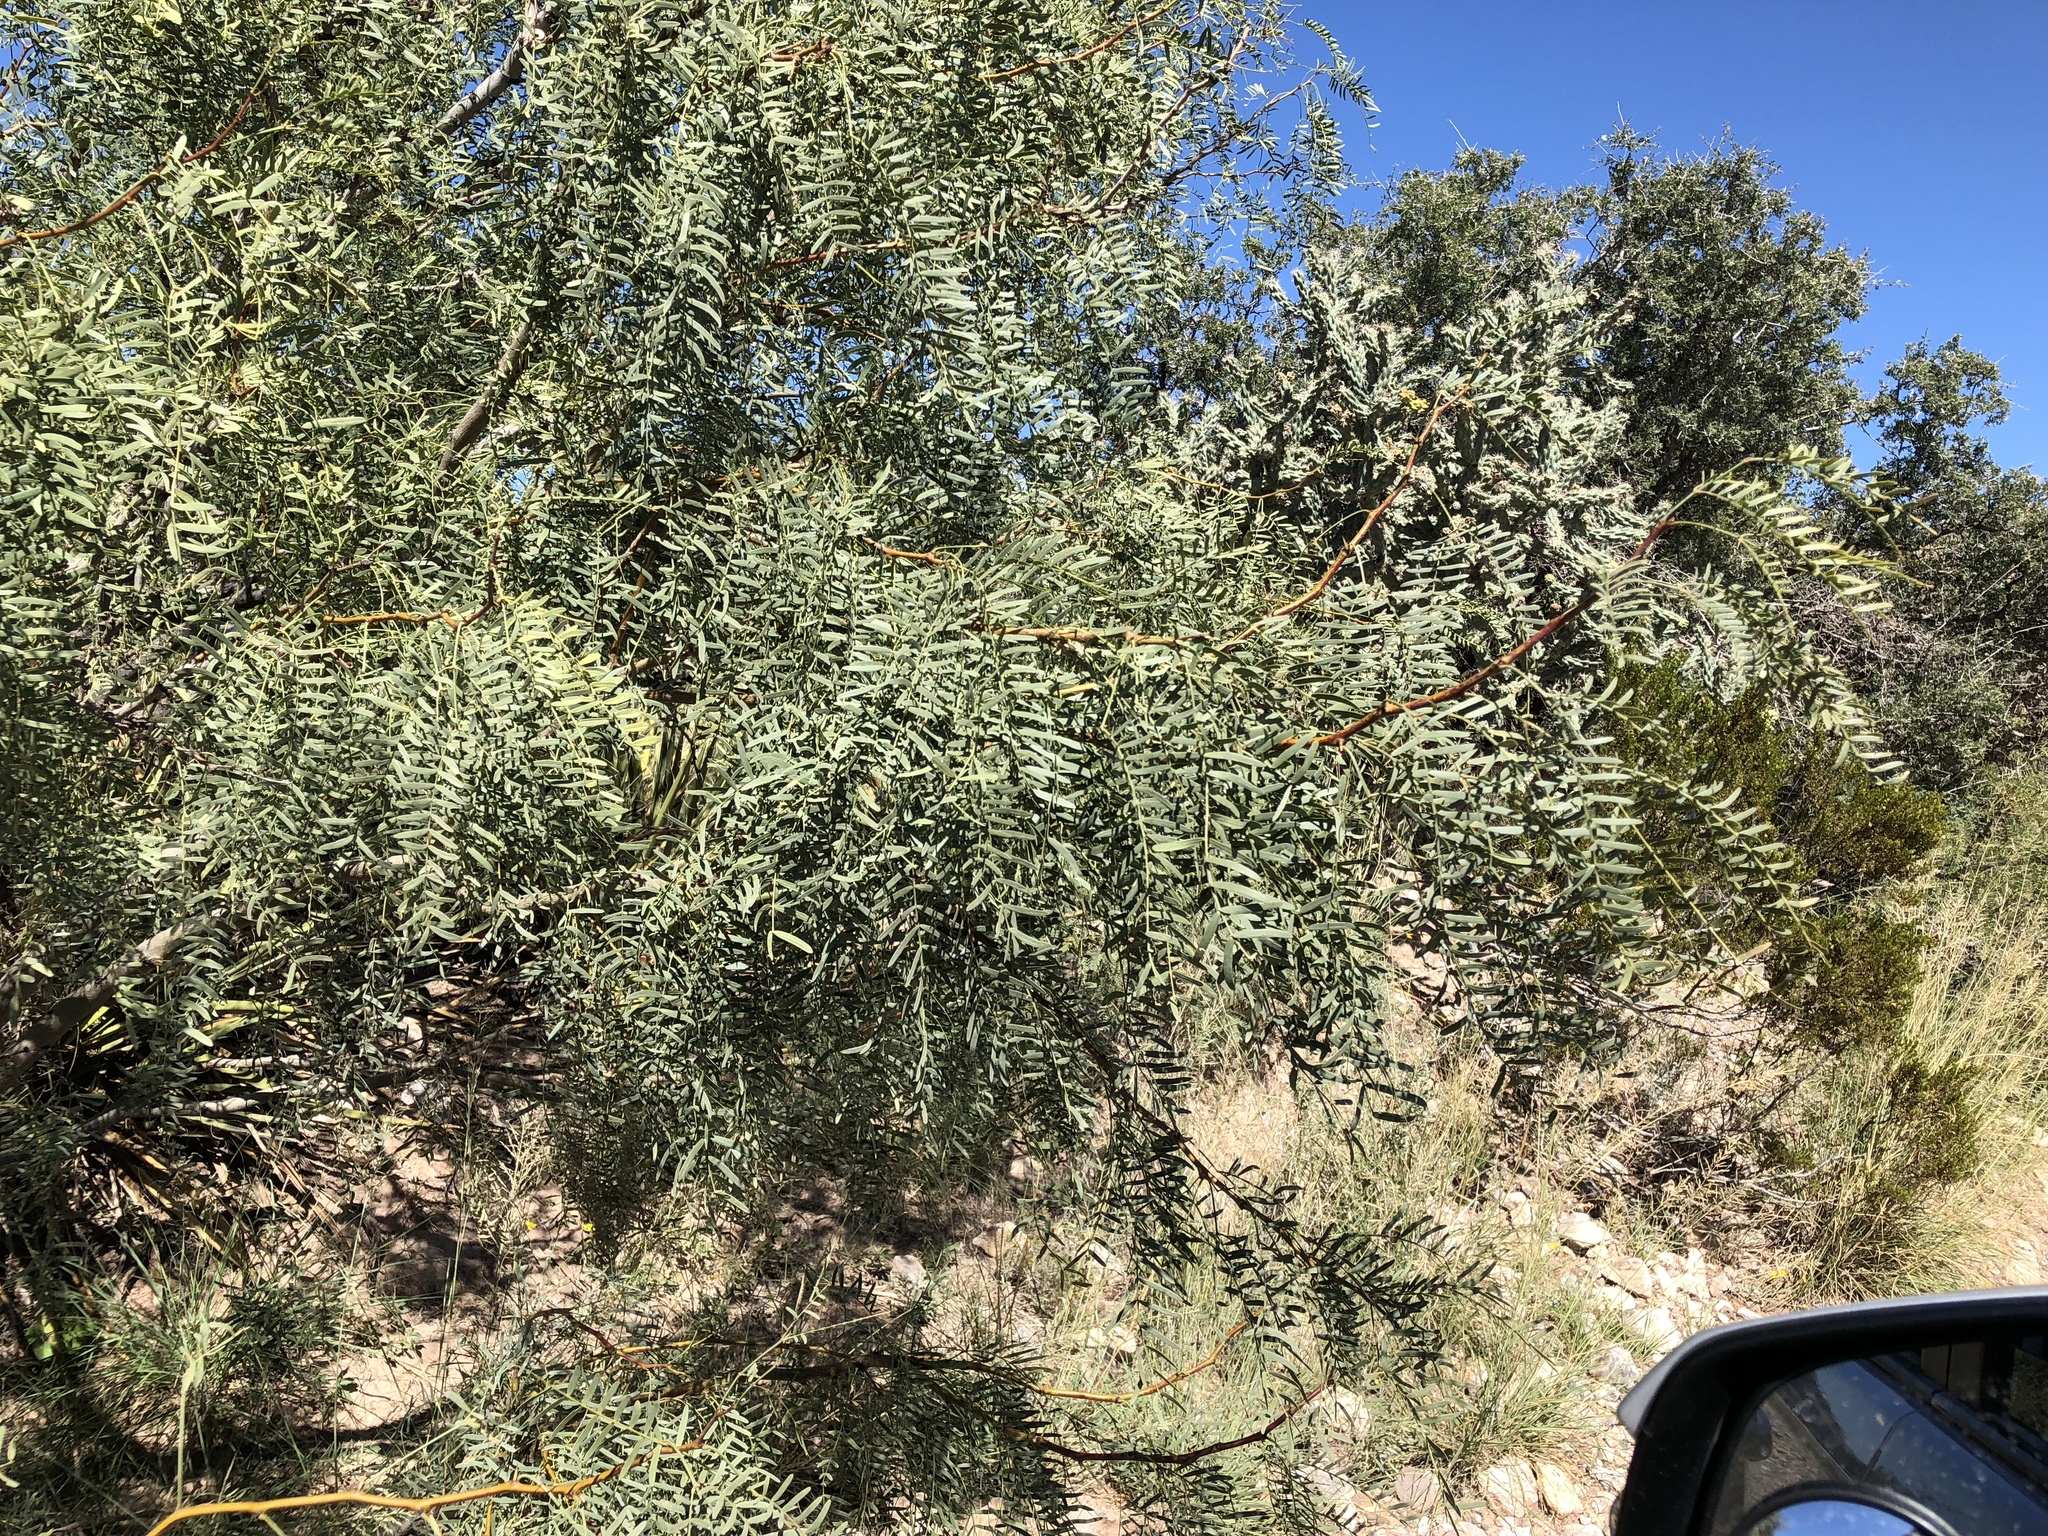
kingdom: Plantae
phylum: Tracheophyta
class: Magnoliopsida
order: Fabales
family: Fabaceae
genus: Prosopis
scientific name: Prosopis glandulosa
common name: Honey mesquite
